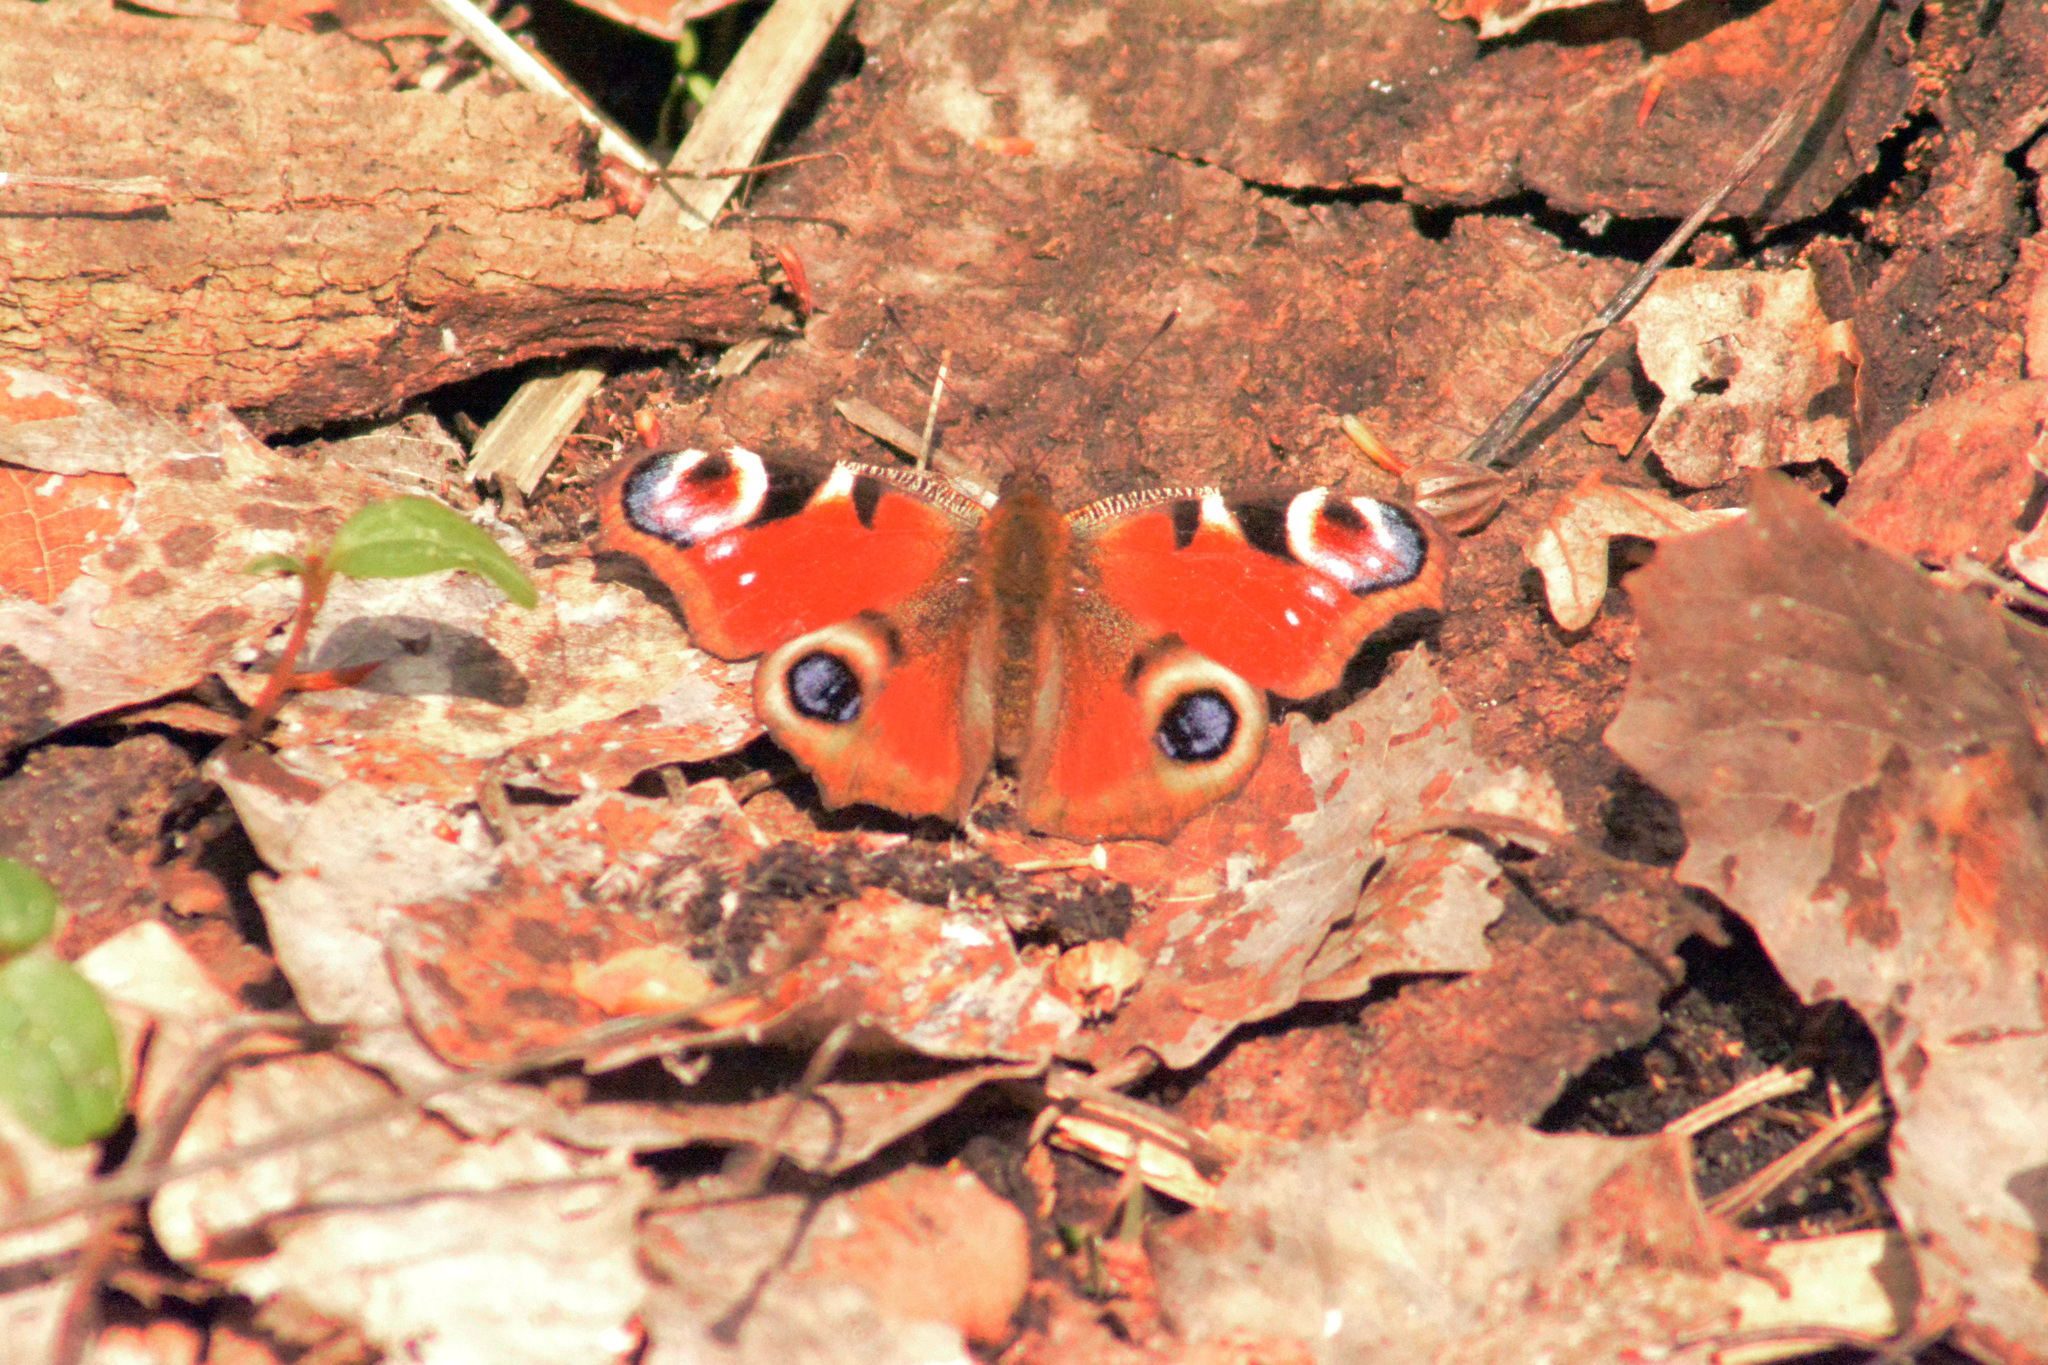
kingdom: Animalia
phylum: Arthropoda
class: Insecta
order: Lepidoptera
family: Nymphalidae
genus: Aglais
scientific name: Aglais io
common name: Peacock
